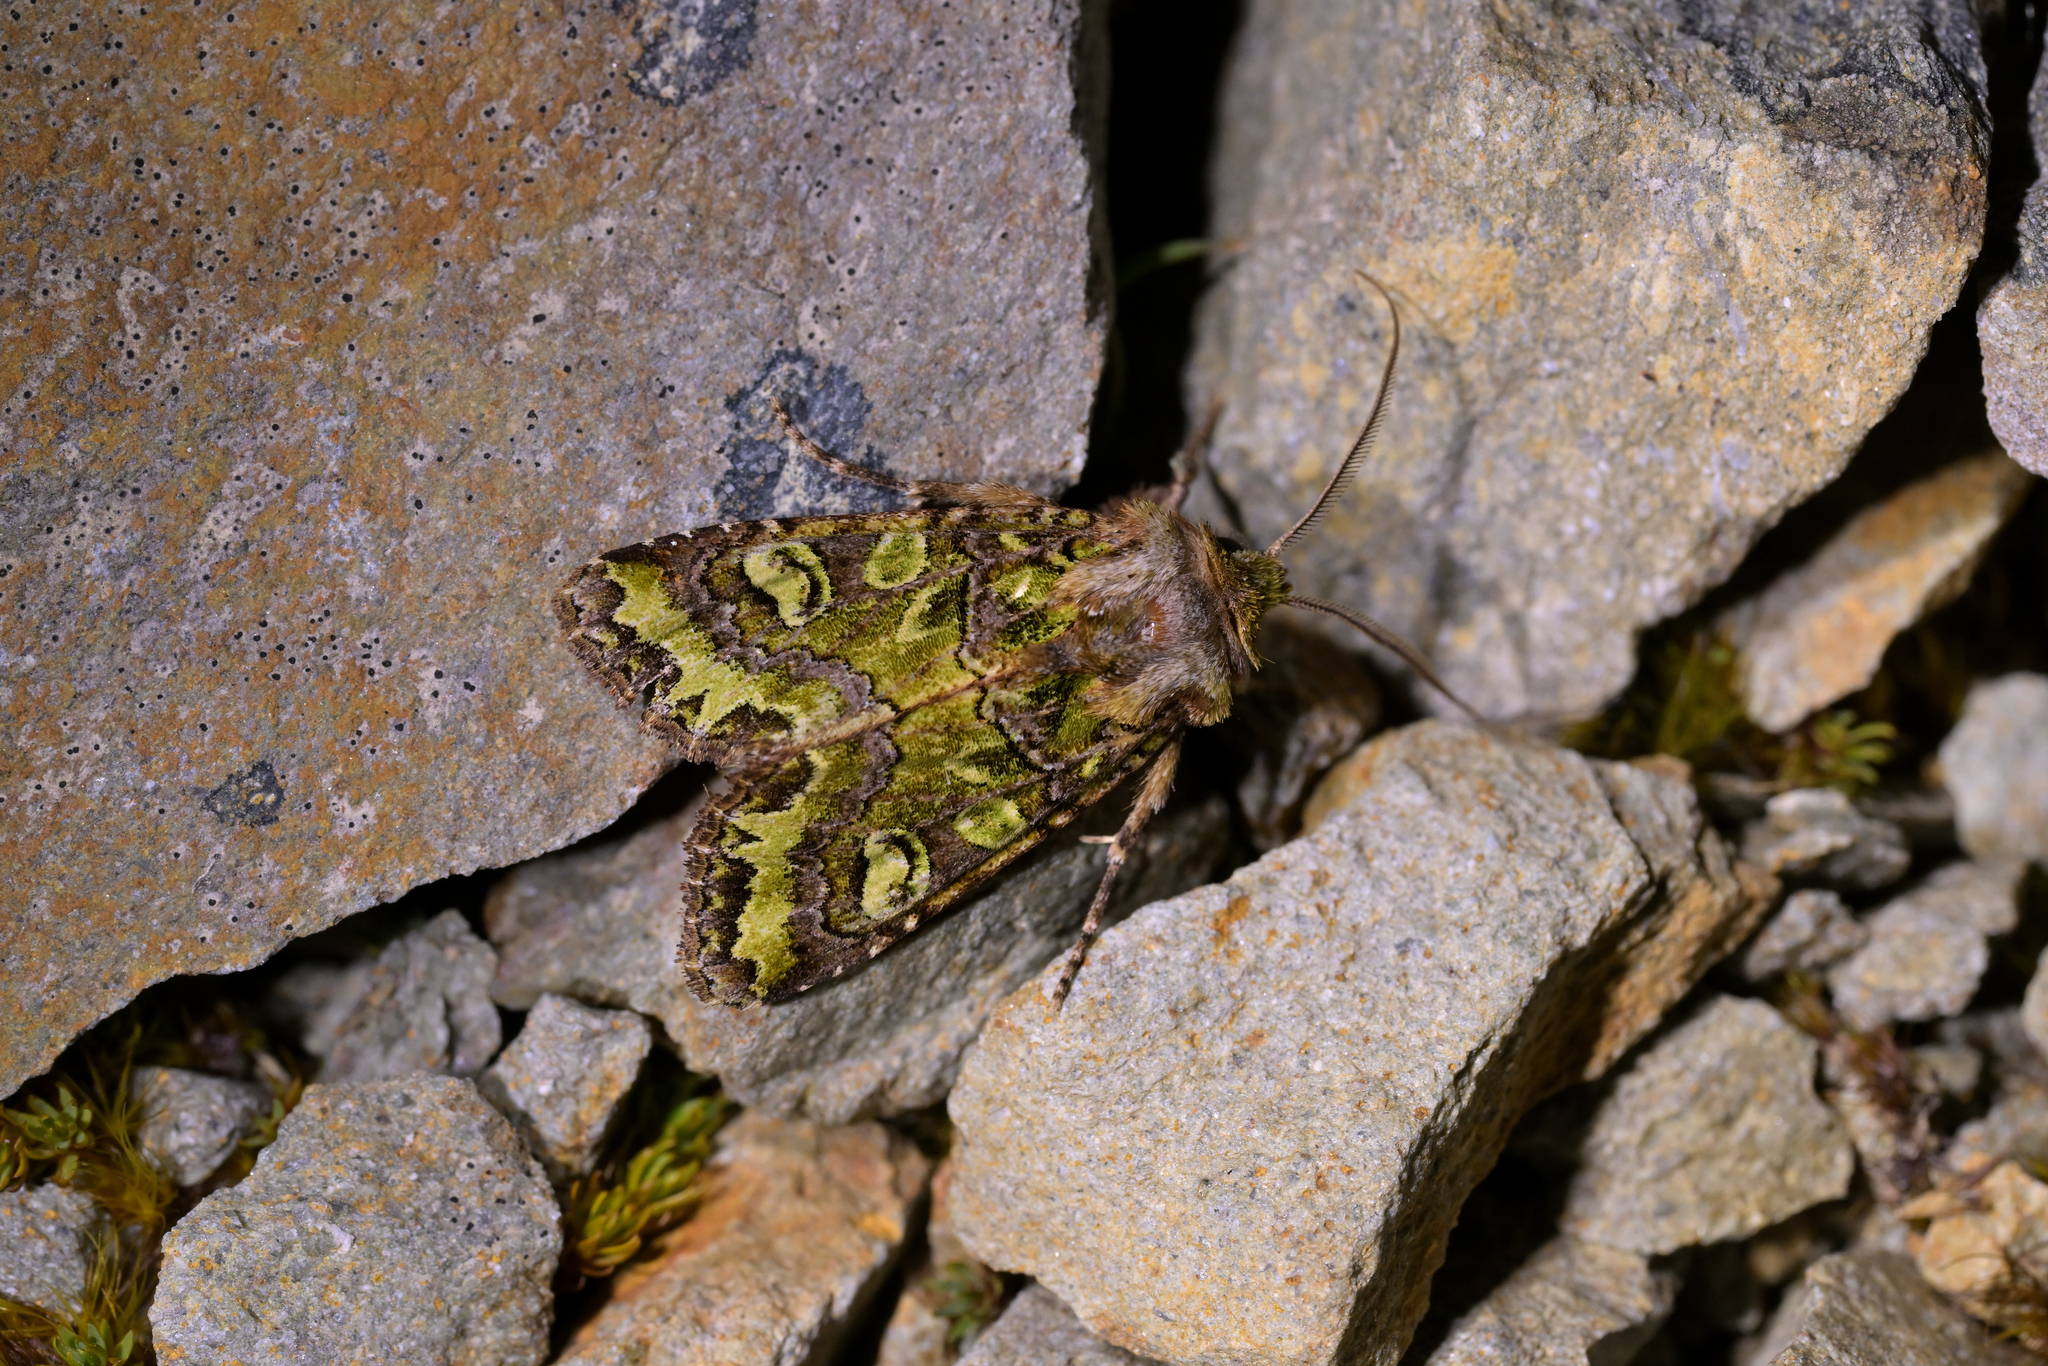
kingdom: Animalia
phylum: Arthropoda
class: Insecta
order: Lepidoptera
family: Noctuidae
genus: Ichneutica
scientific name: Ichneutica chlorodonta
